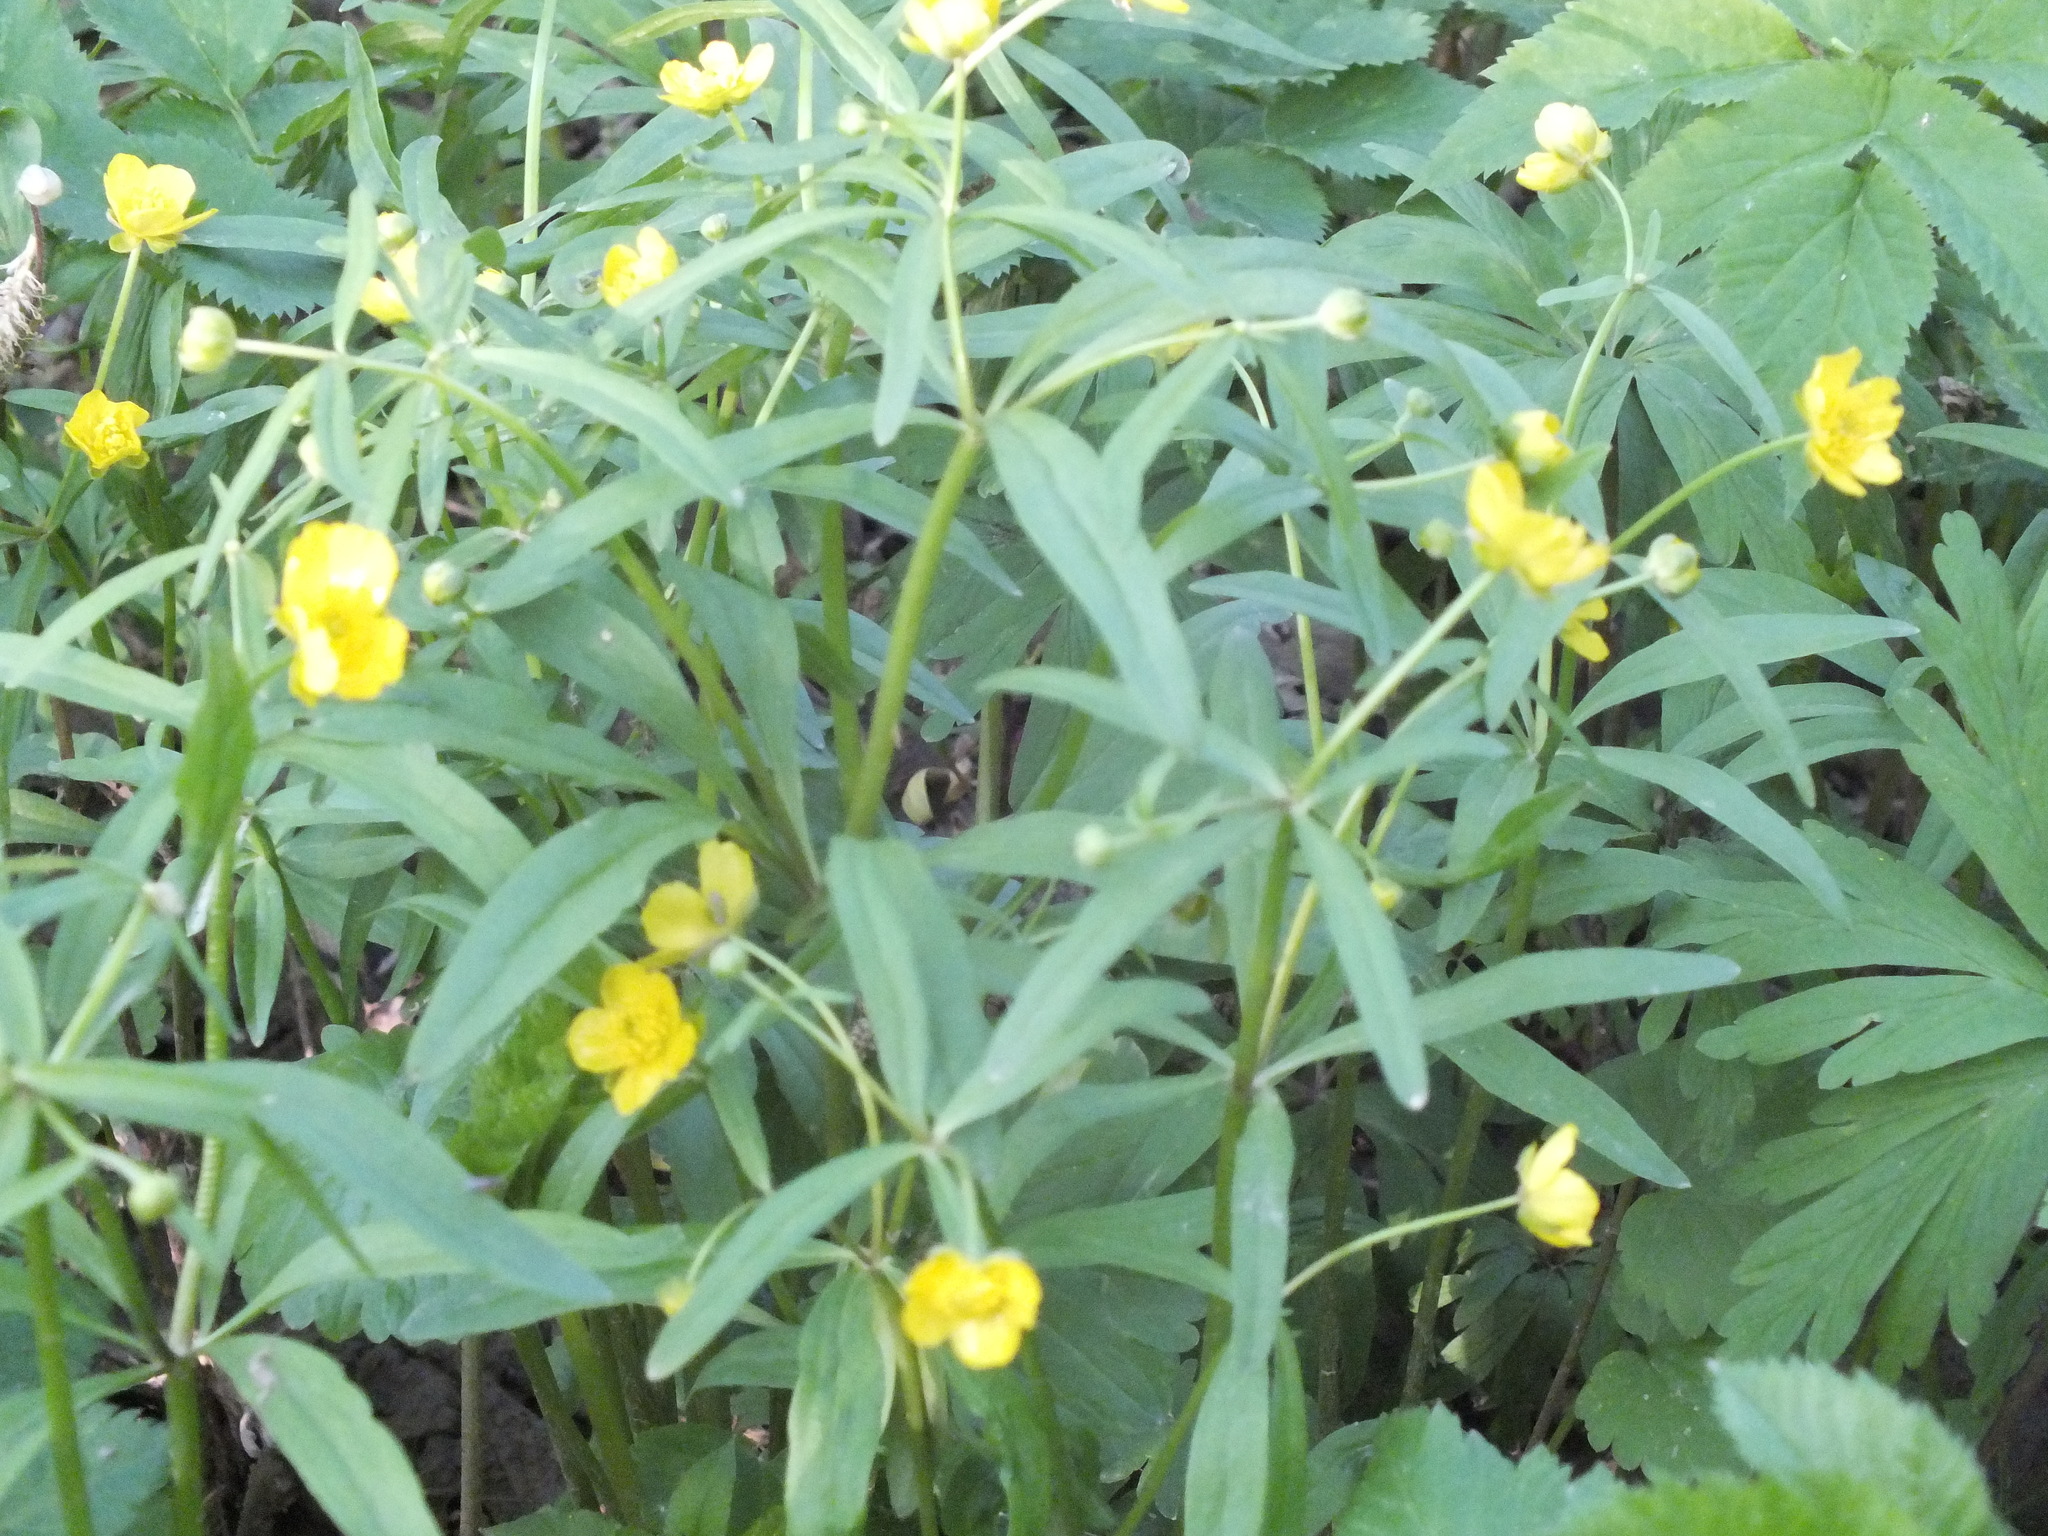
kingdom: Plantae
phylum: Tracheophyta
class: Magnoliopsida
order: Ranunculales
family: Ranunculaceae
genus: Ranunculus
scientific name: Ranunculus monophyllus
